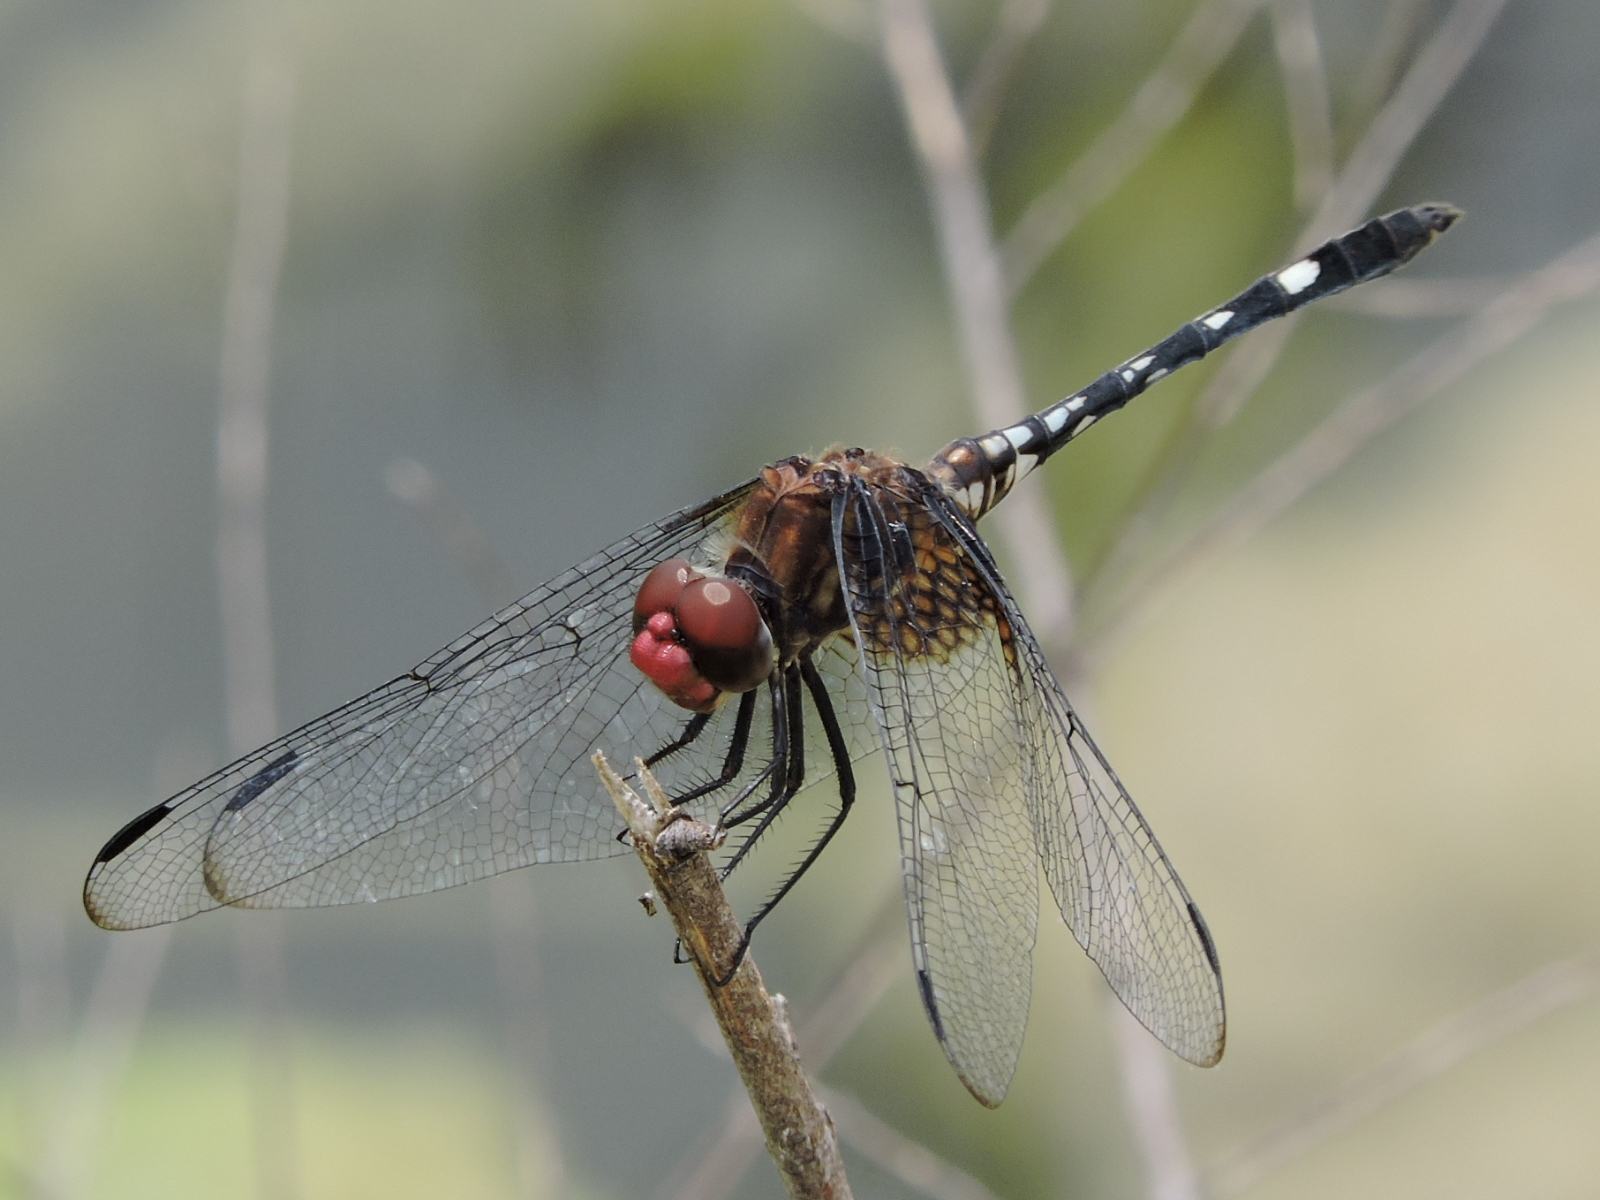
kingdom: Animalia
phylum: Arthropoda
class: Insecta
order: Odonata
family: Libellulidae
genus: Dythemis
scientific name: Dythemis fugax
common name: Checkered setwing
